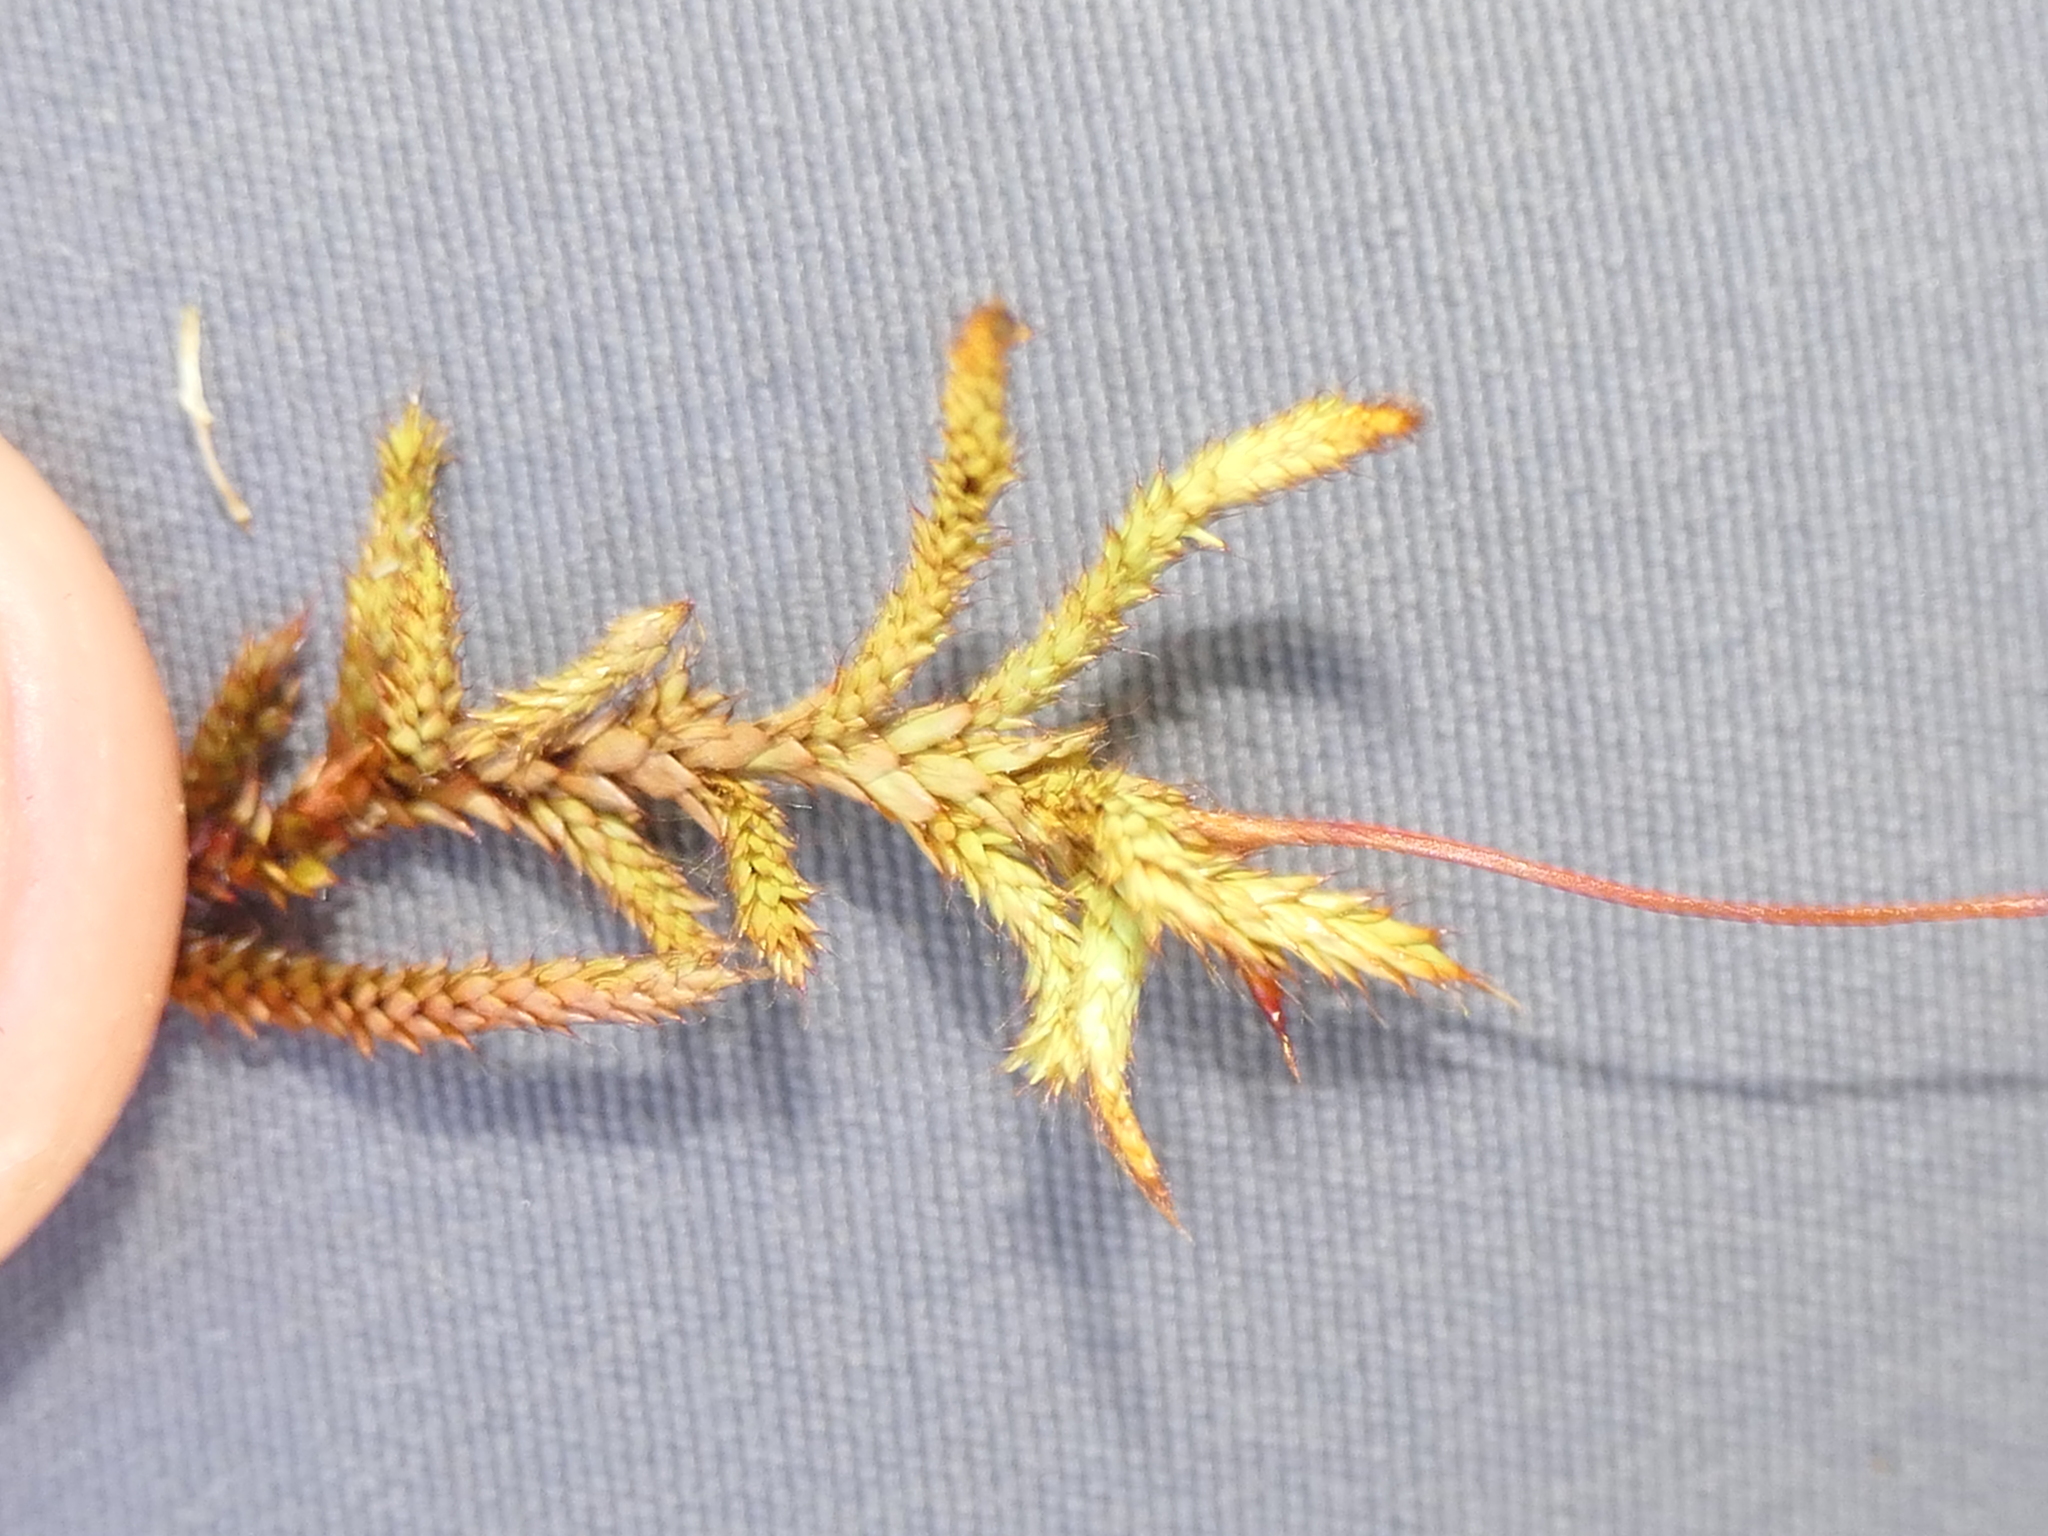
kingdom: Plantae
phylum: Bryophyta
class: Bryopsida
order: Hedwigiales
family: Hedwigiaceae
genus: Rhacocarpus
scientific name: Rhacocarpus purpurascens
